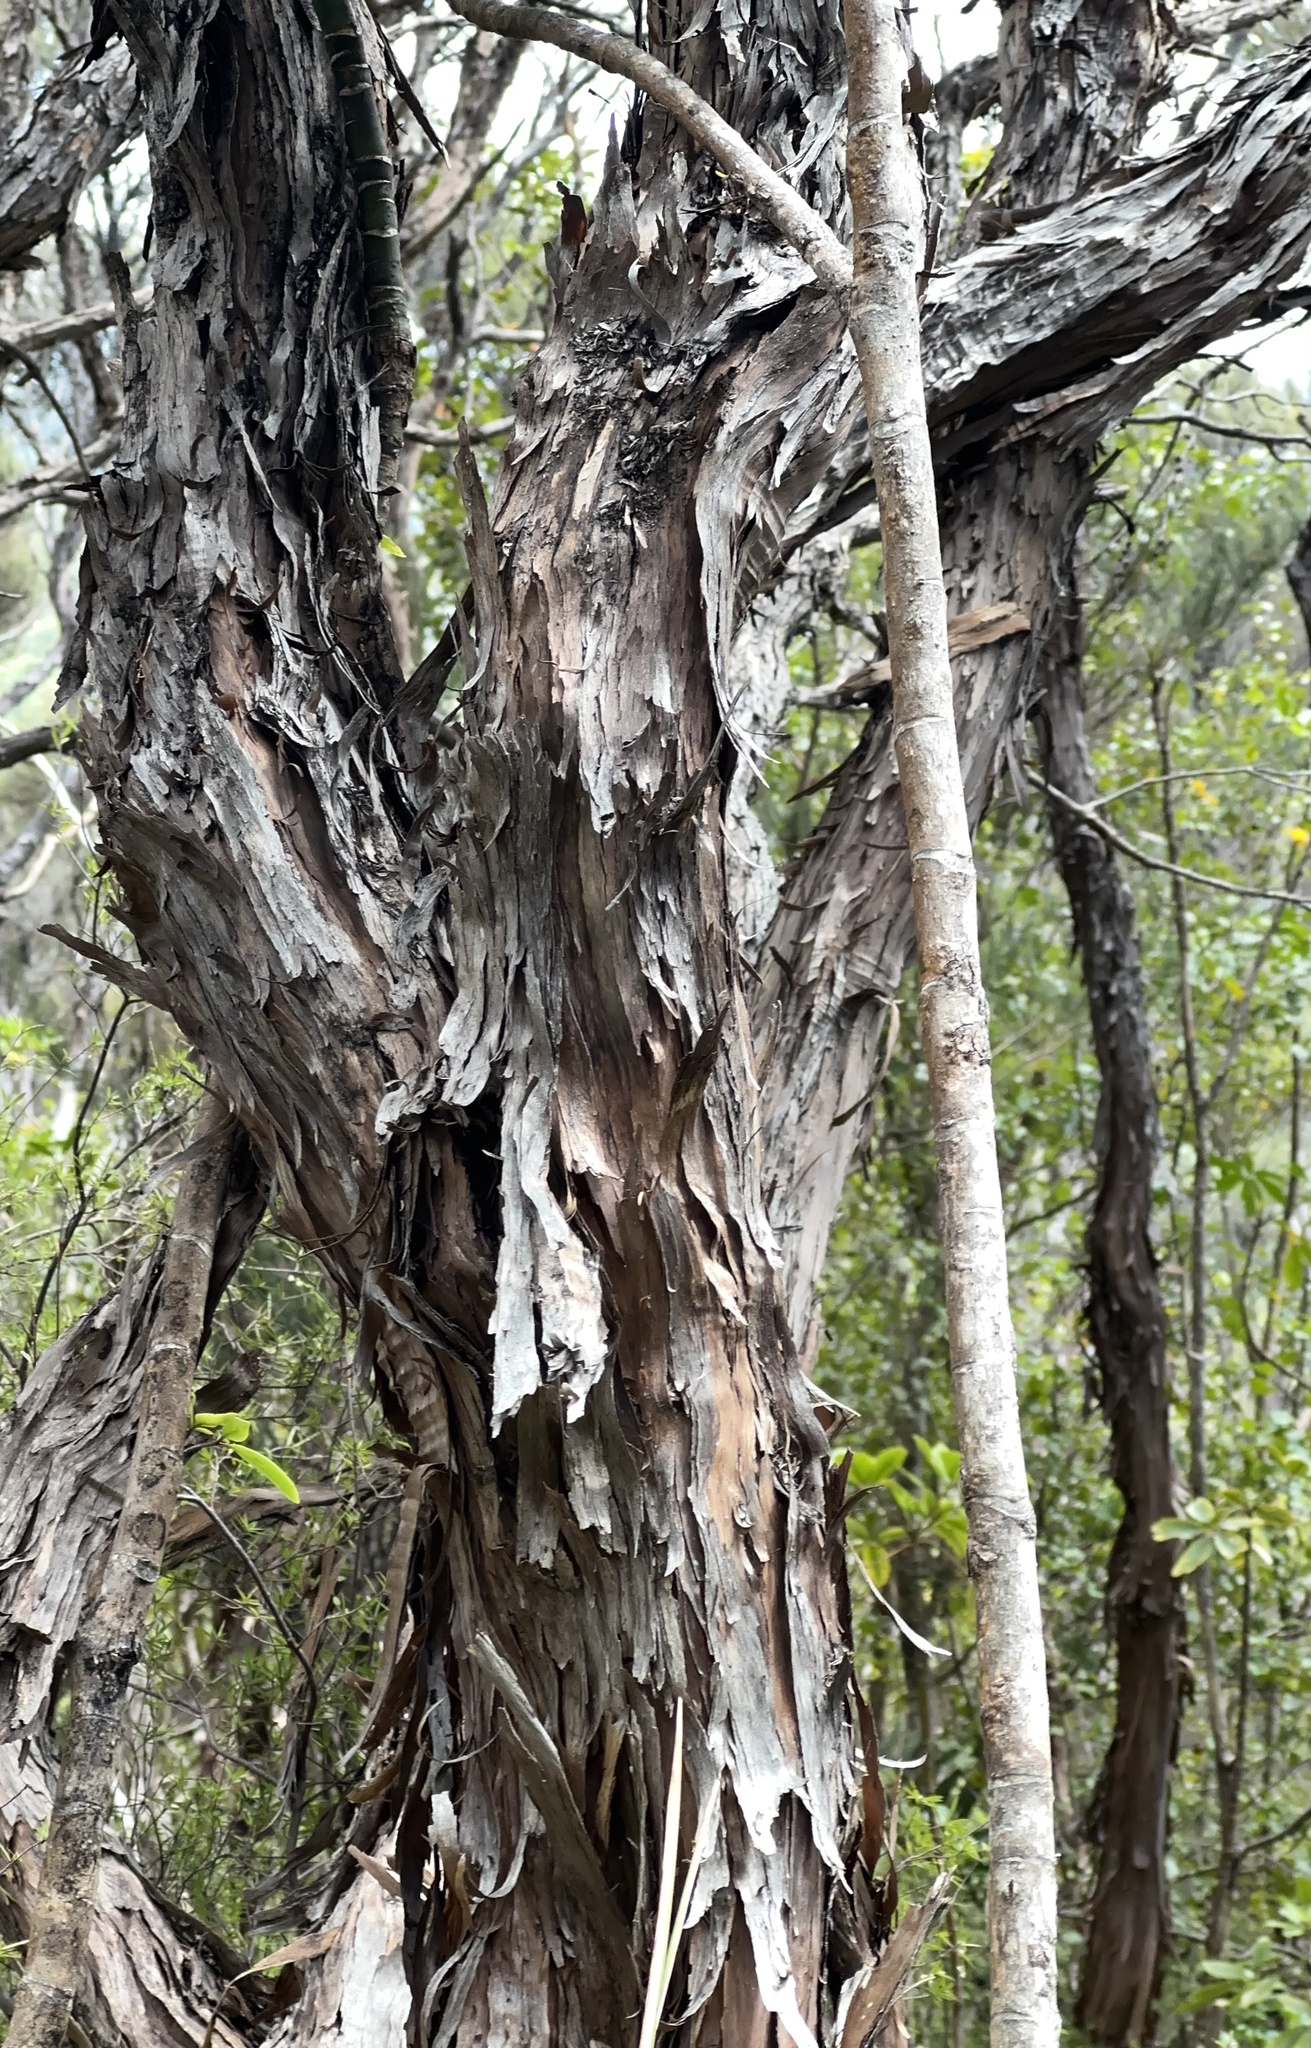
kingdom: Plantae
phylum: Tracheophyta
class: Magnoliopsida
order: Myrtales
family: Myrtaceae
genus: Leptospermum
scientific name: Leptospermum scoparium
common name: Broom tea-tree
